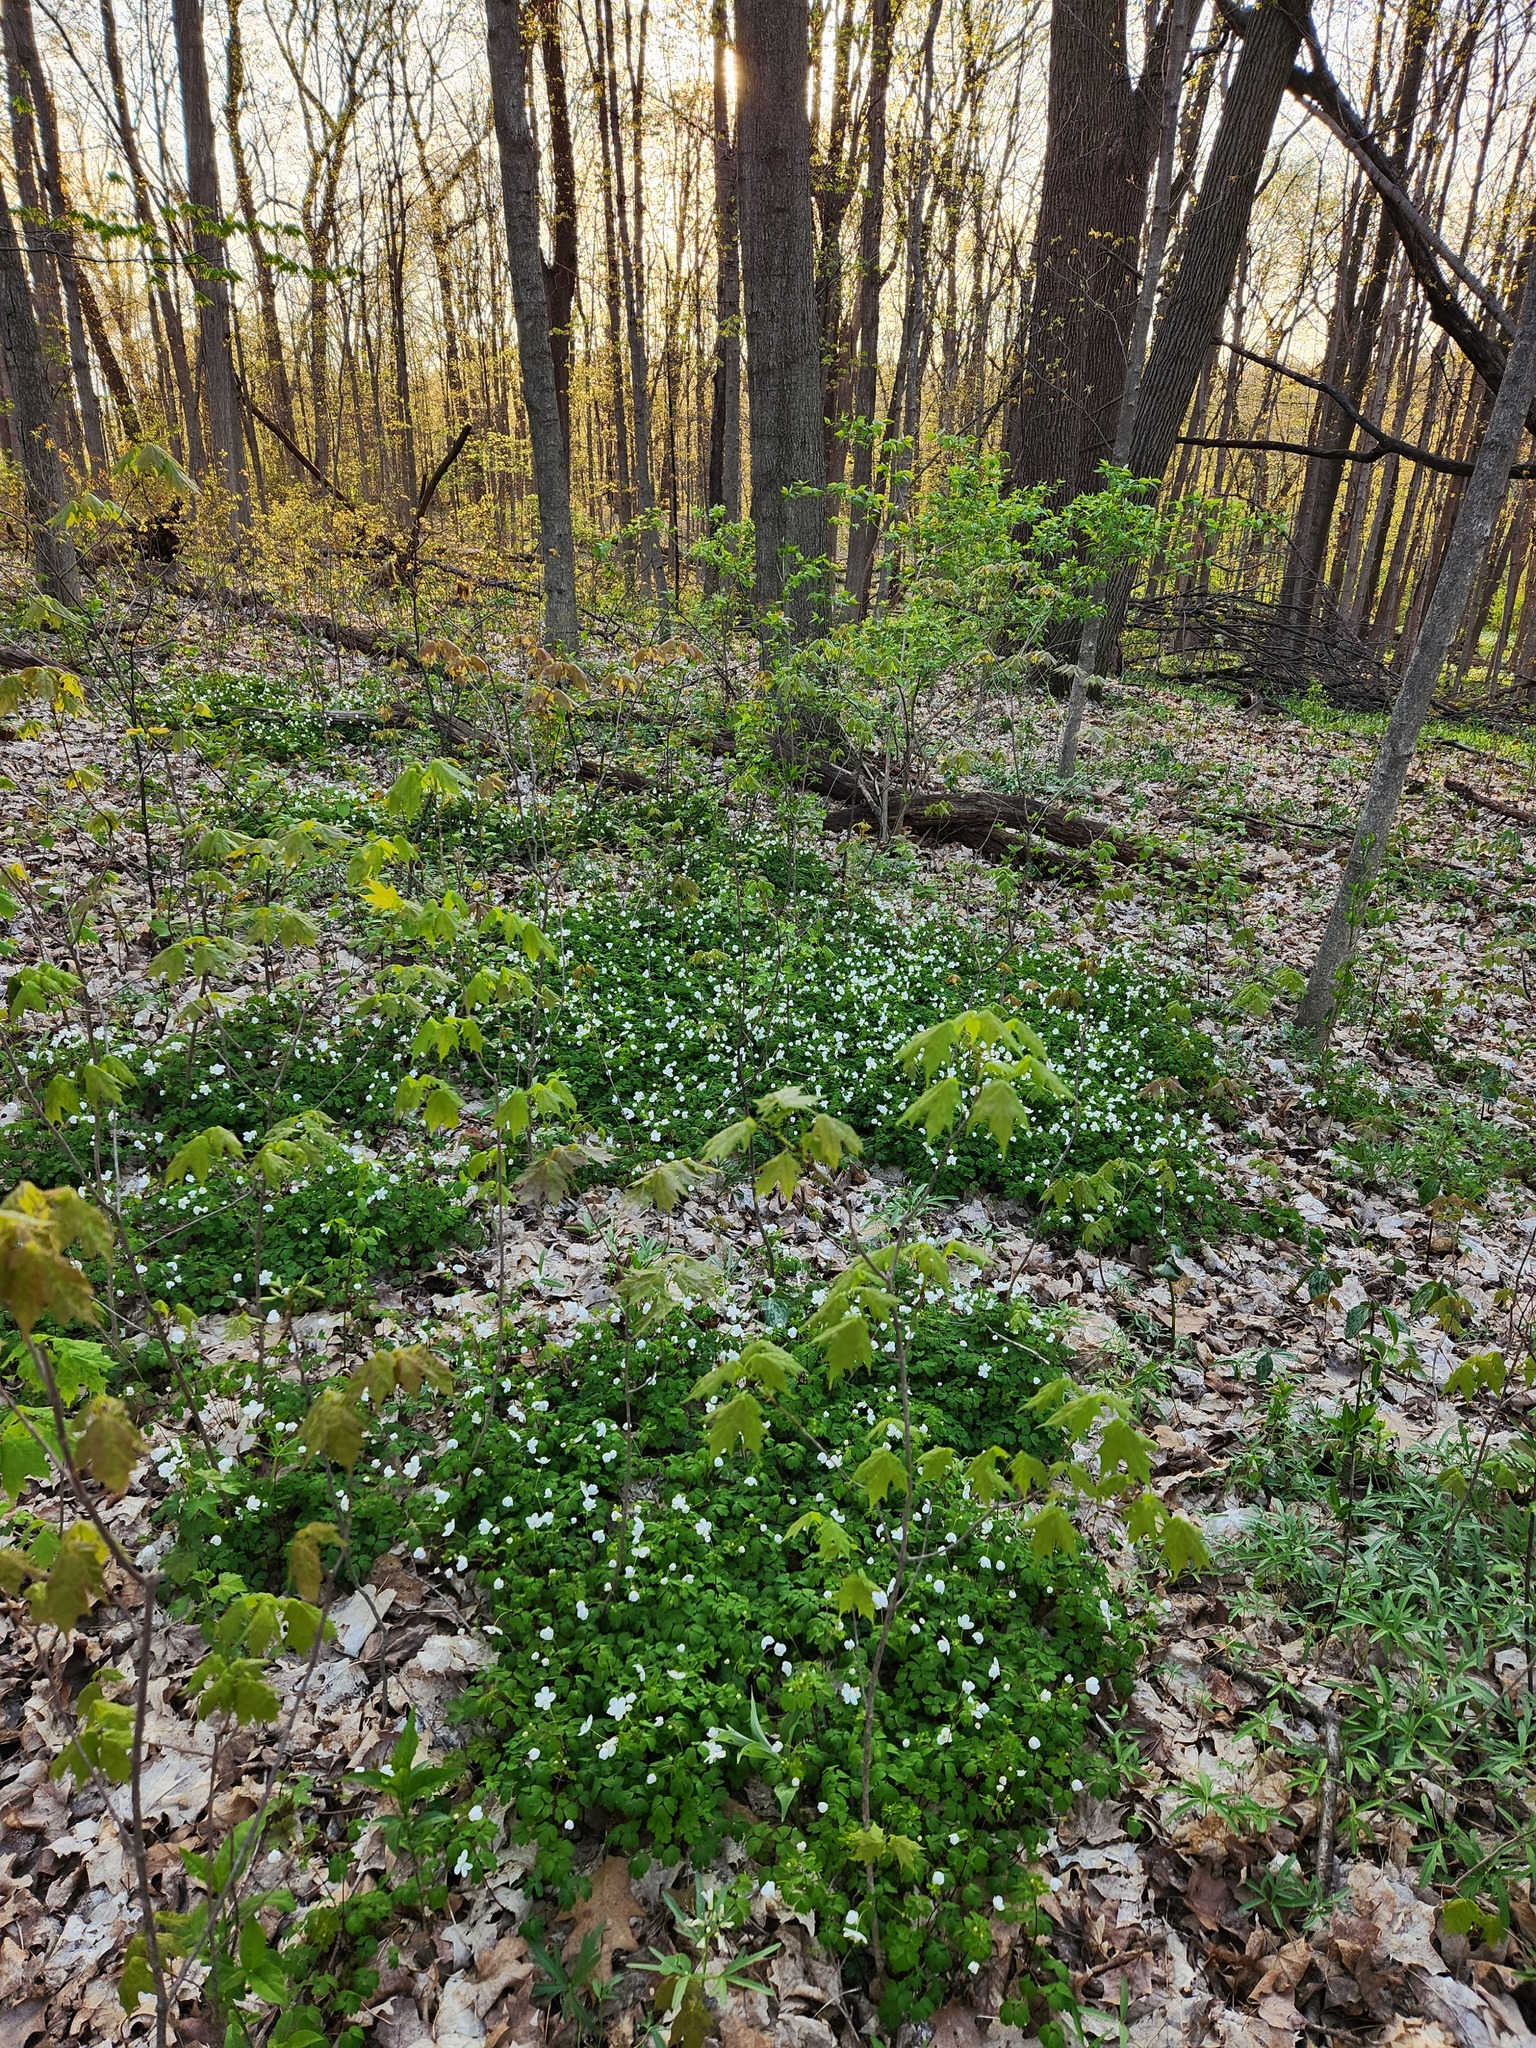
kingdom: Plantae
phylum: Tracheophyta
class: Magnoliopsida
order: Ranunculales
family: Ranunculaceae
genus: Anemone
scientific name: Anemone quinquefolia
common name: Wood anemone
